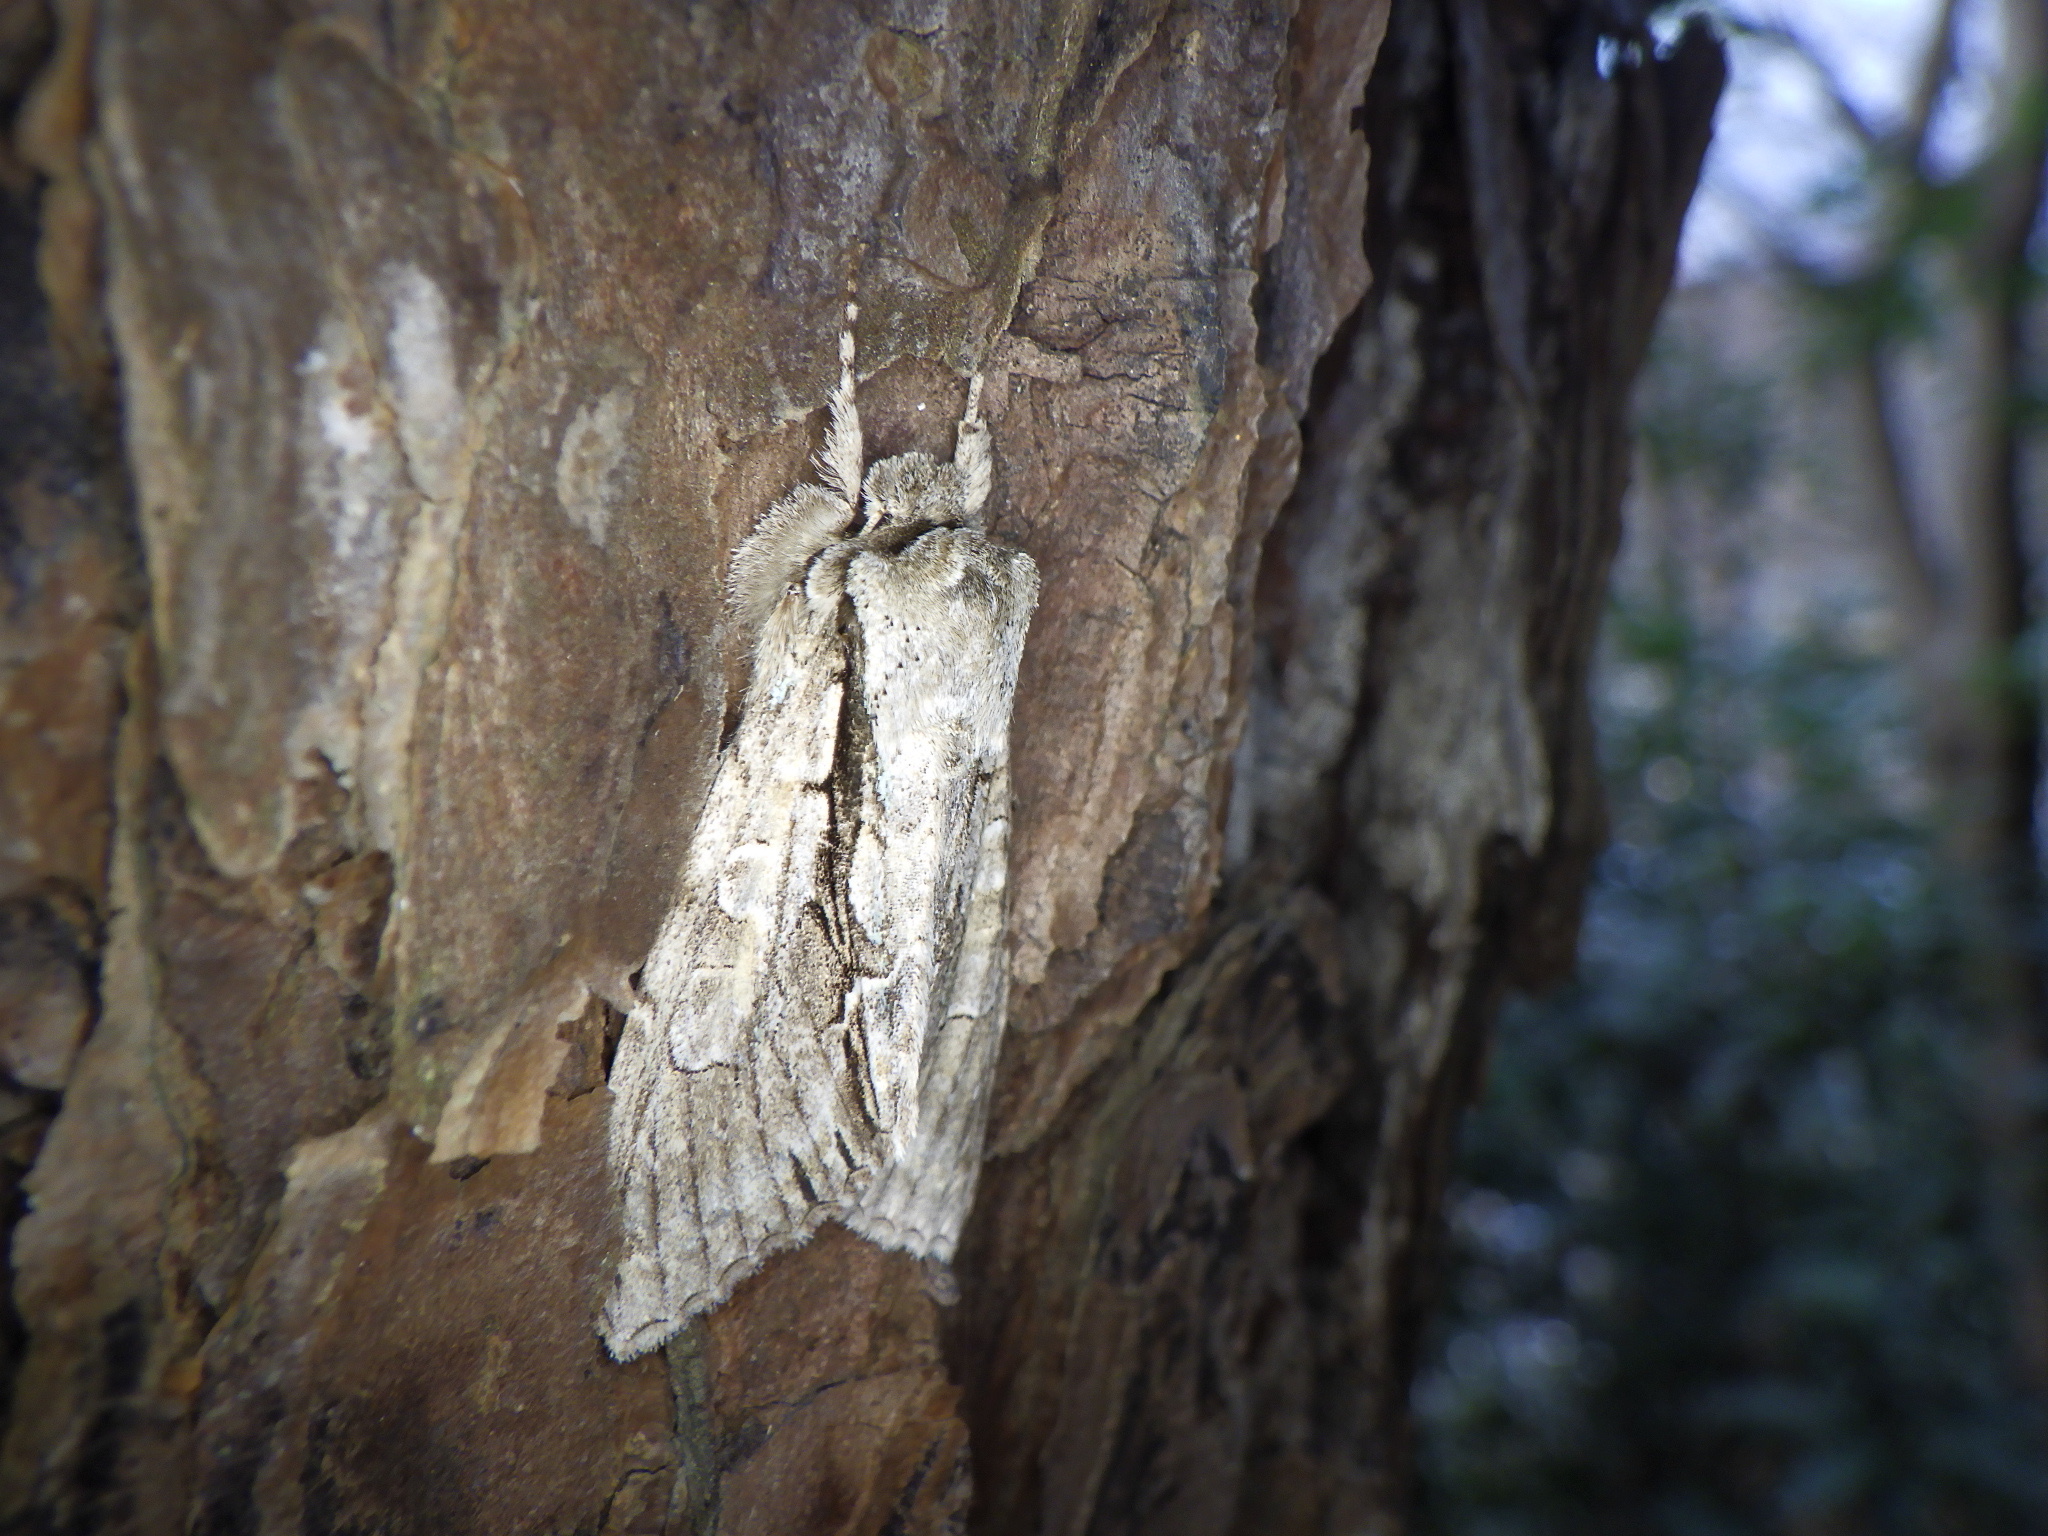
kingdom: Animalia
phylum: Arthropoda
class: Insecta
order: Lepidoptera
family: Noctuidae
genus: Meganephria
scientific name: Meganephria
